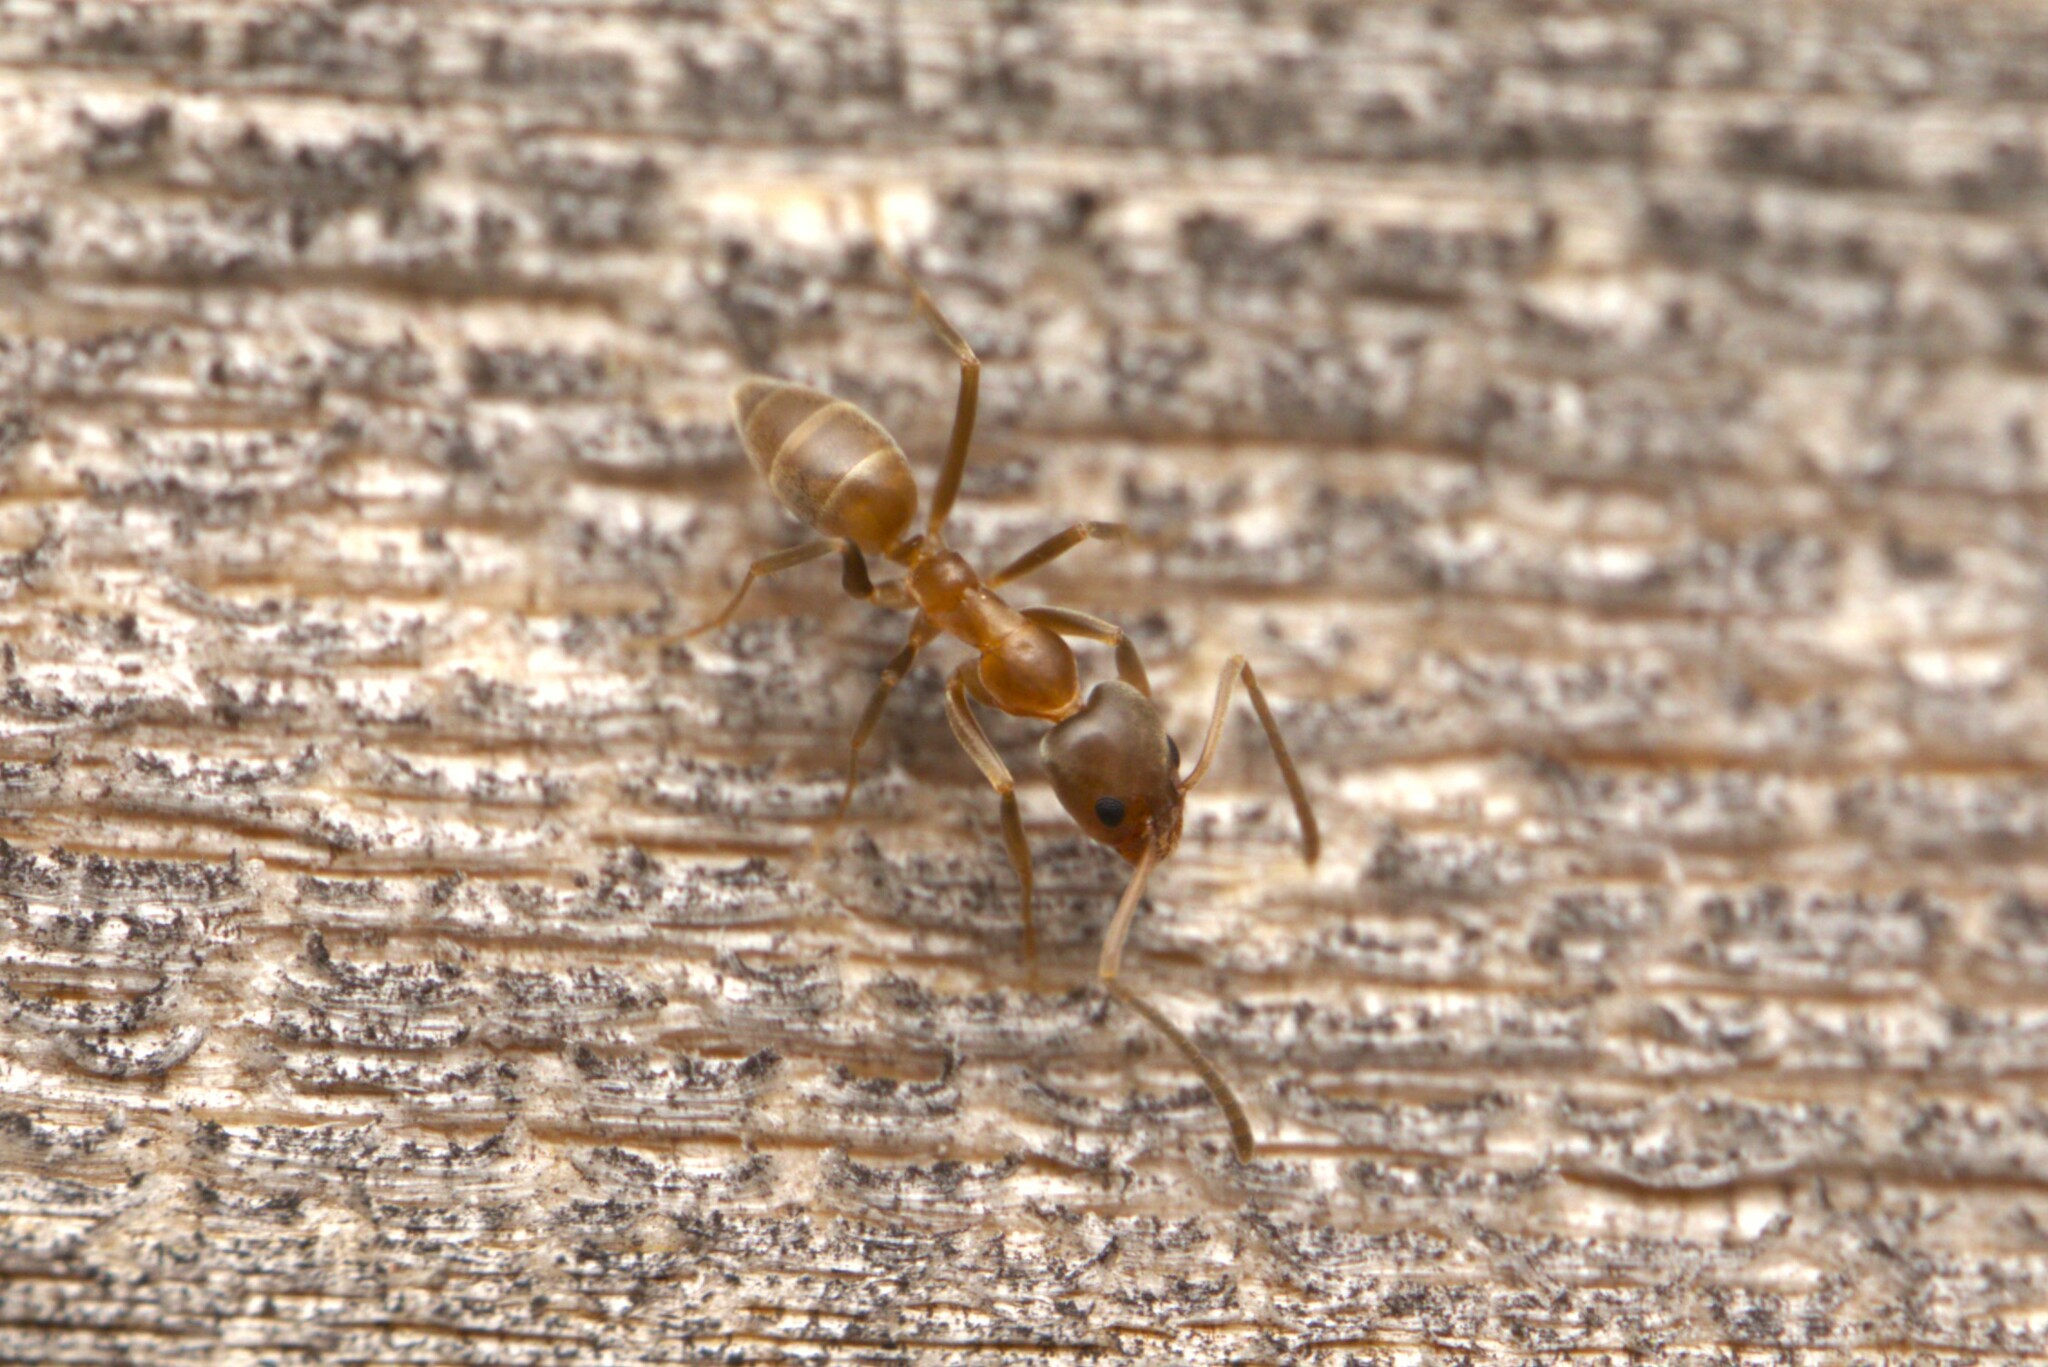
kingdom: Animalia
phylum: Arthropoda
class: Insecta
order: Hymenoptera
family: Formicidae
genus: Linepithema
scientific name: Linepithema humile
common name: Argentine ant
